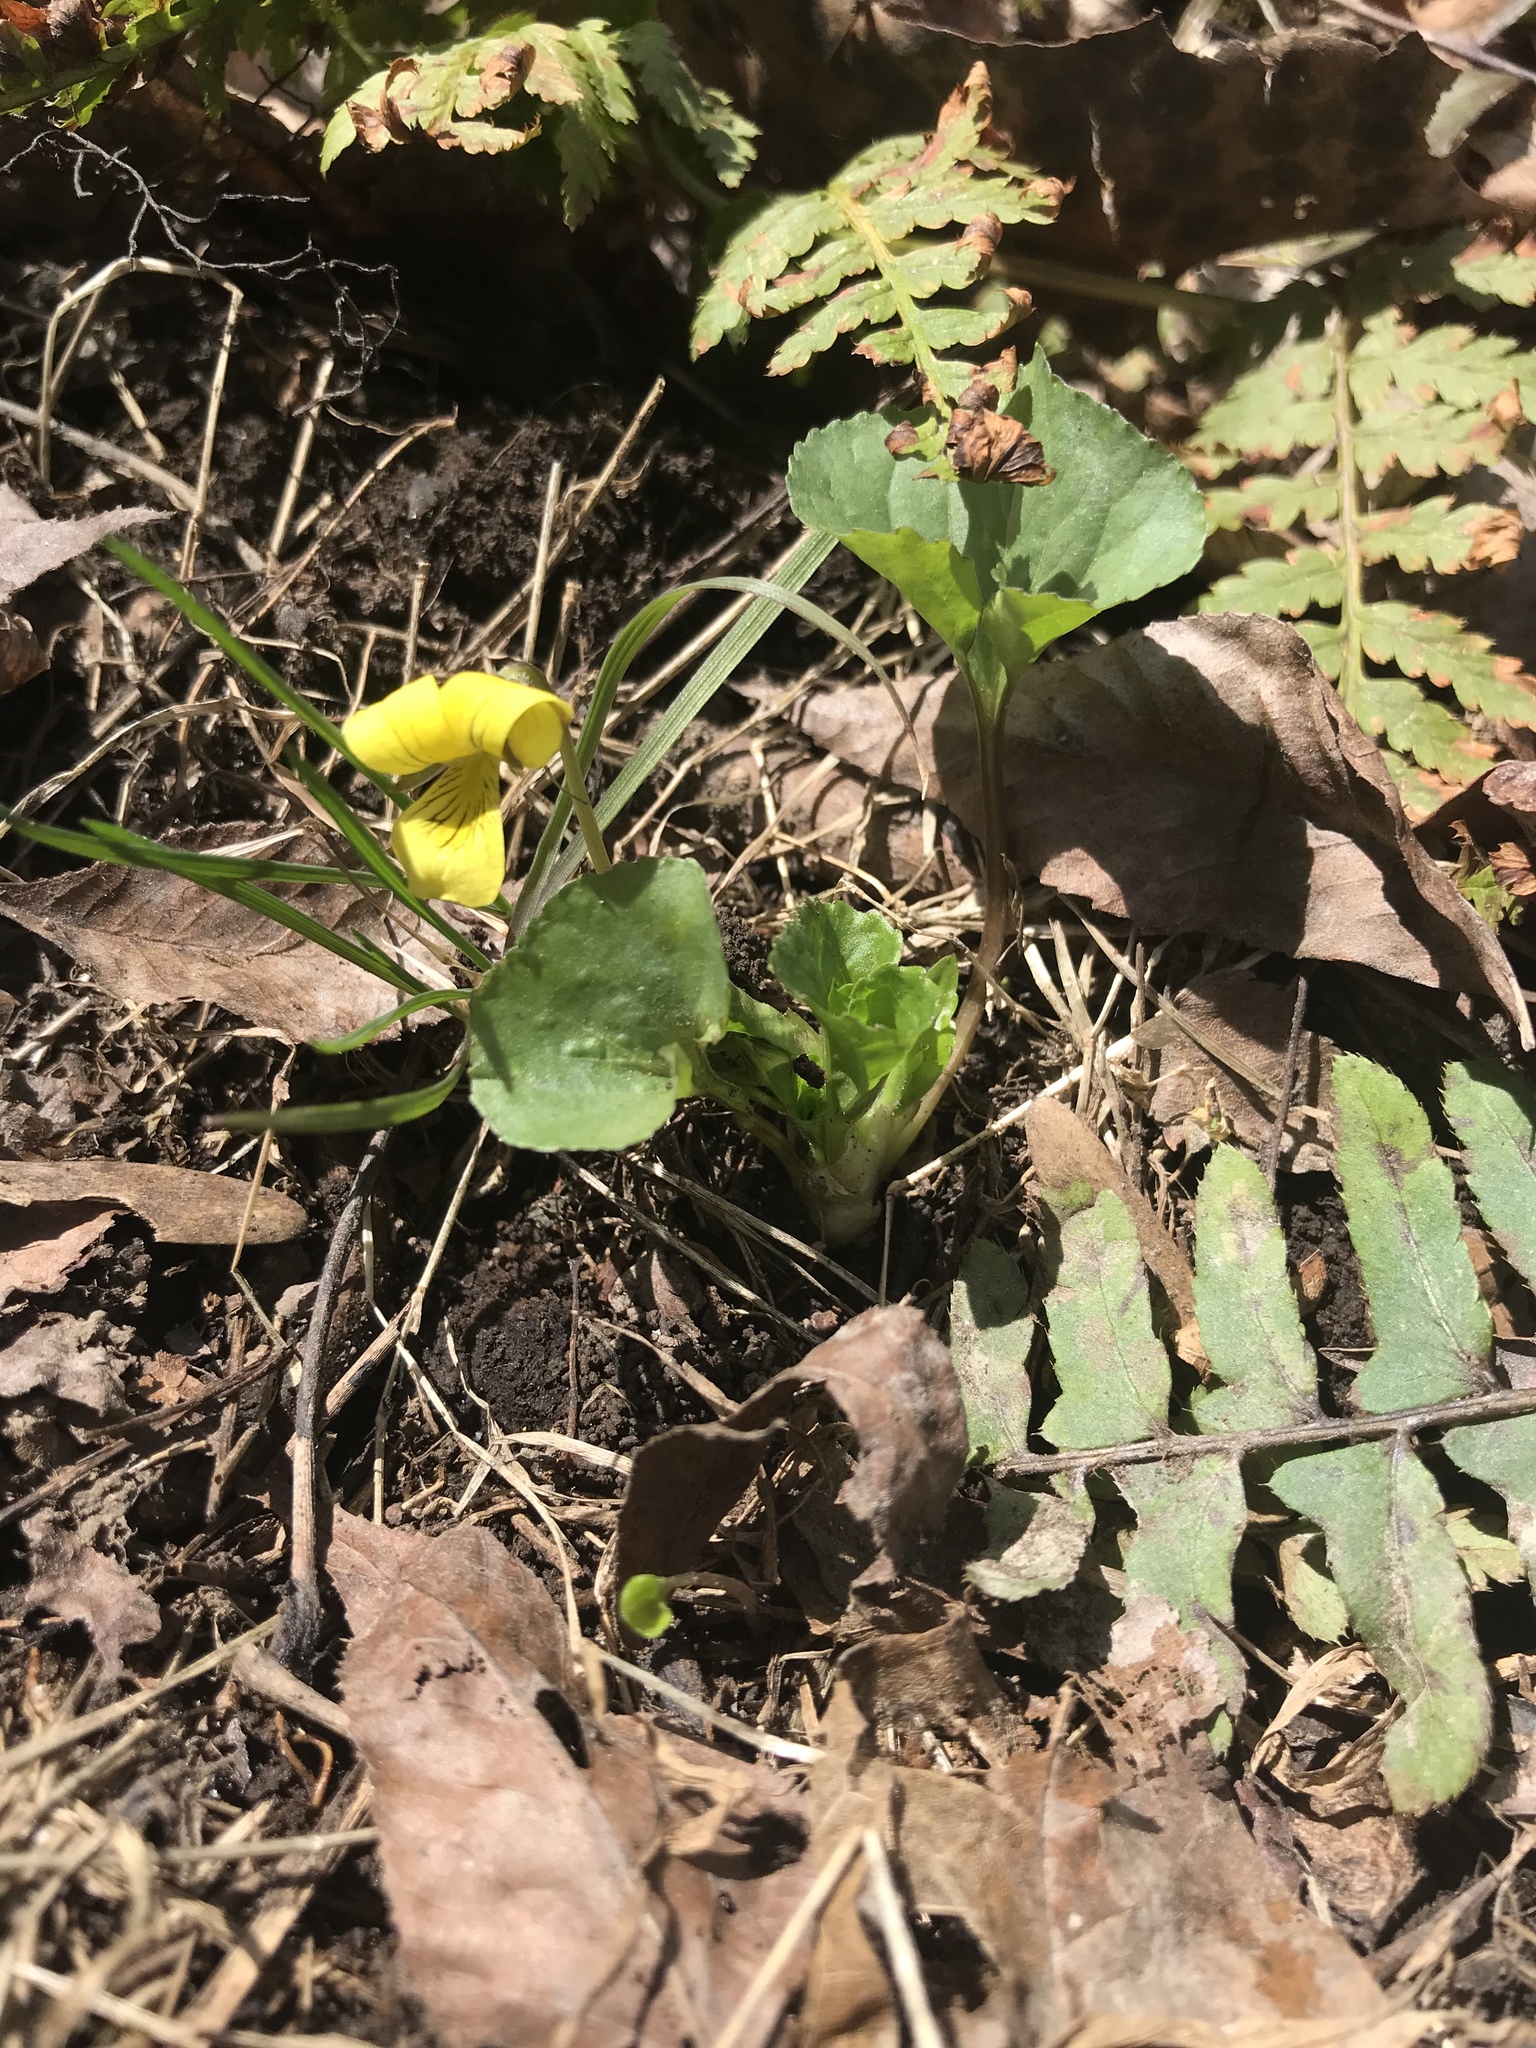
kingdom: Plantae
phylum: Tracheophyta
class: Magnoliopsida
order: Malpighiales
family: Violaceae
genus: Viola
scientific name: Viola eriocarpa
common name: Smooth yellow violet
